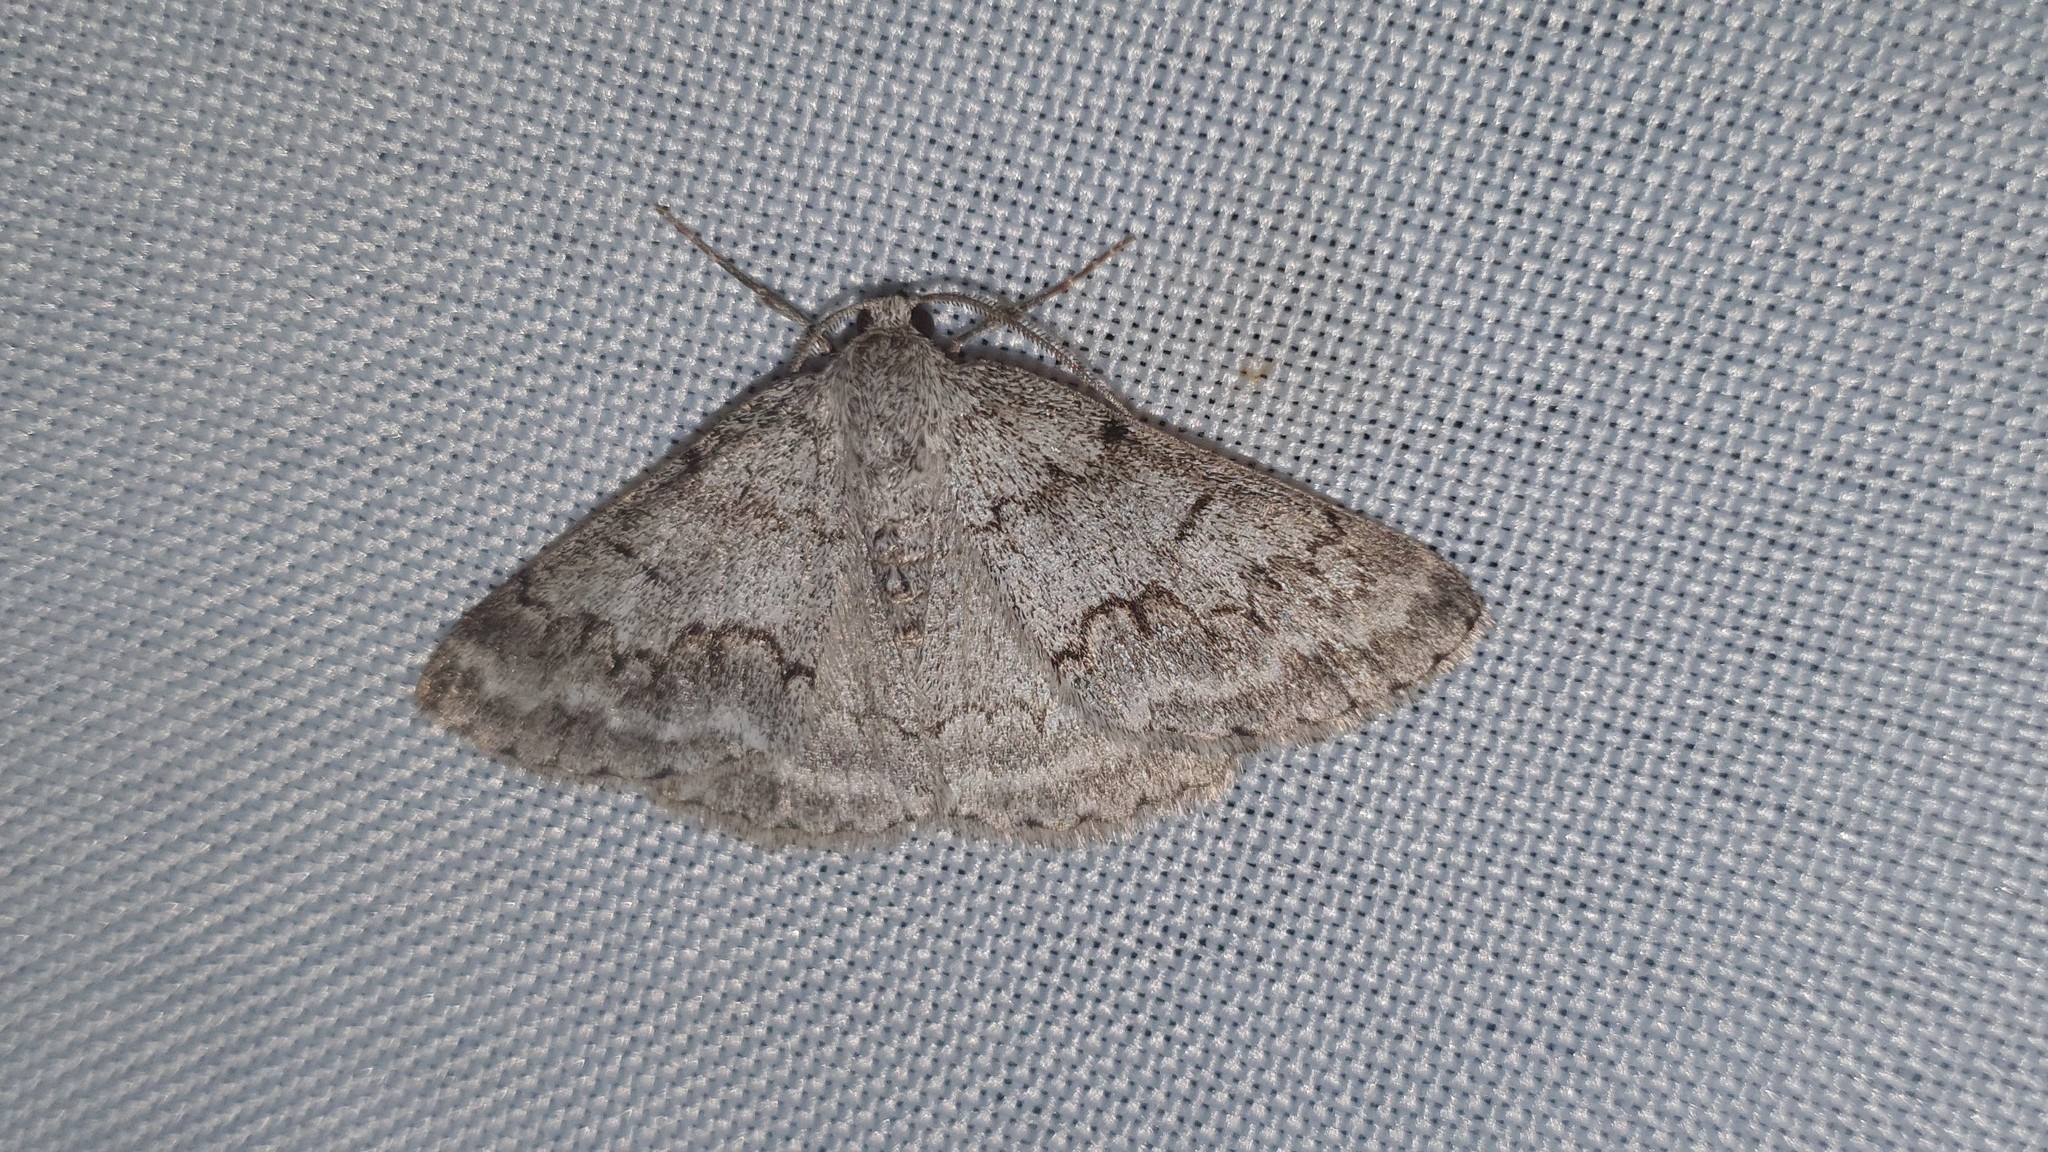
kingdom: Animalia
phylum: Arthropoda
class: Insecta
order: Lepidoptera
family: Geometridae
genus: Pseudoterpna
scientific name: Pseudoterpna coronillaria
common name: Jersey emerald
